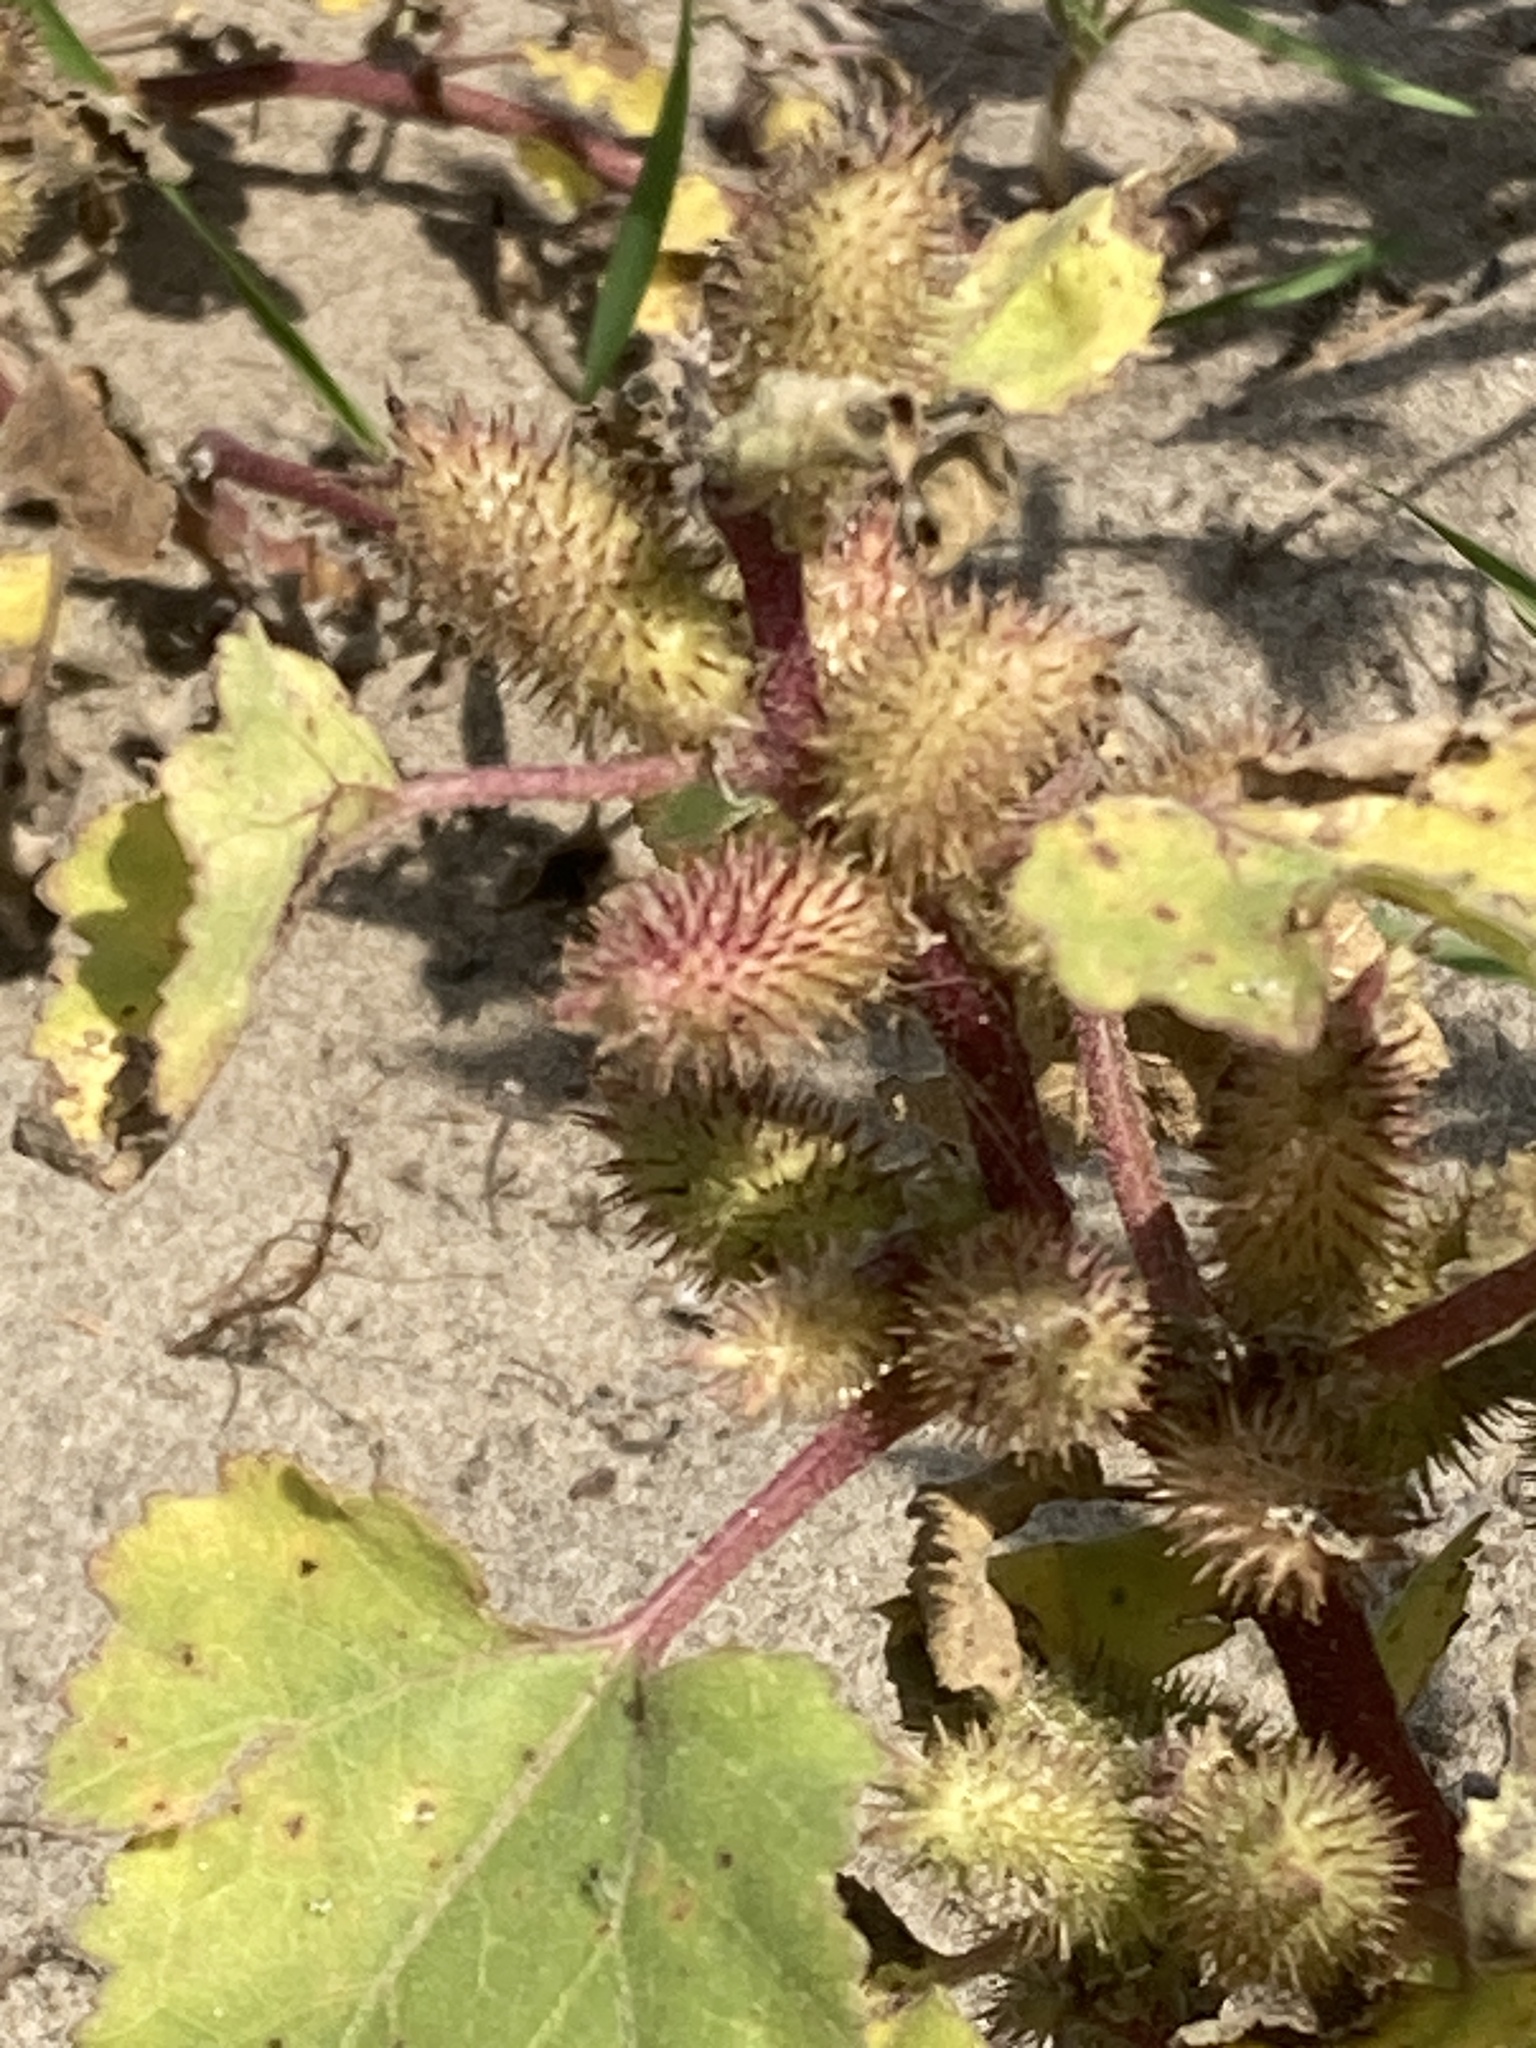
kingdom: Plantae
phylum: Tracheophyta
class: Magnoliopsida
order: Asterales
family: Asteraceae
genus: Xanthium
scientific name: Xanthium strumarium
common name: Rough cocklebur
